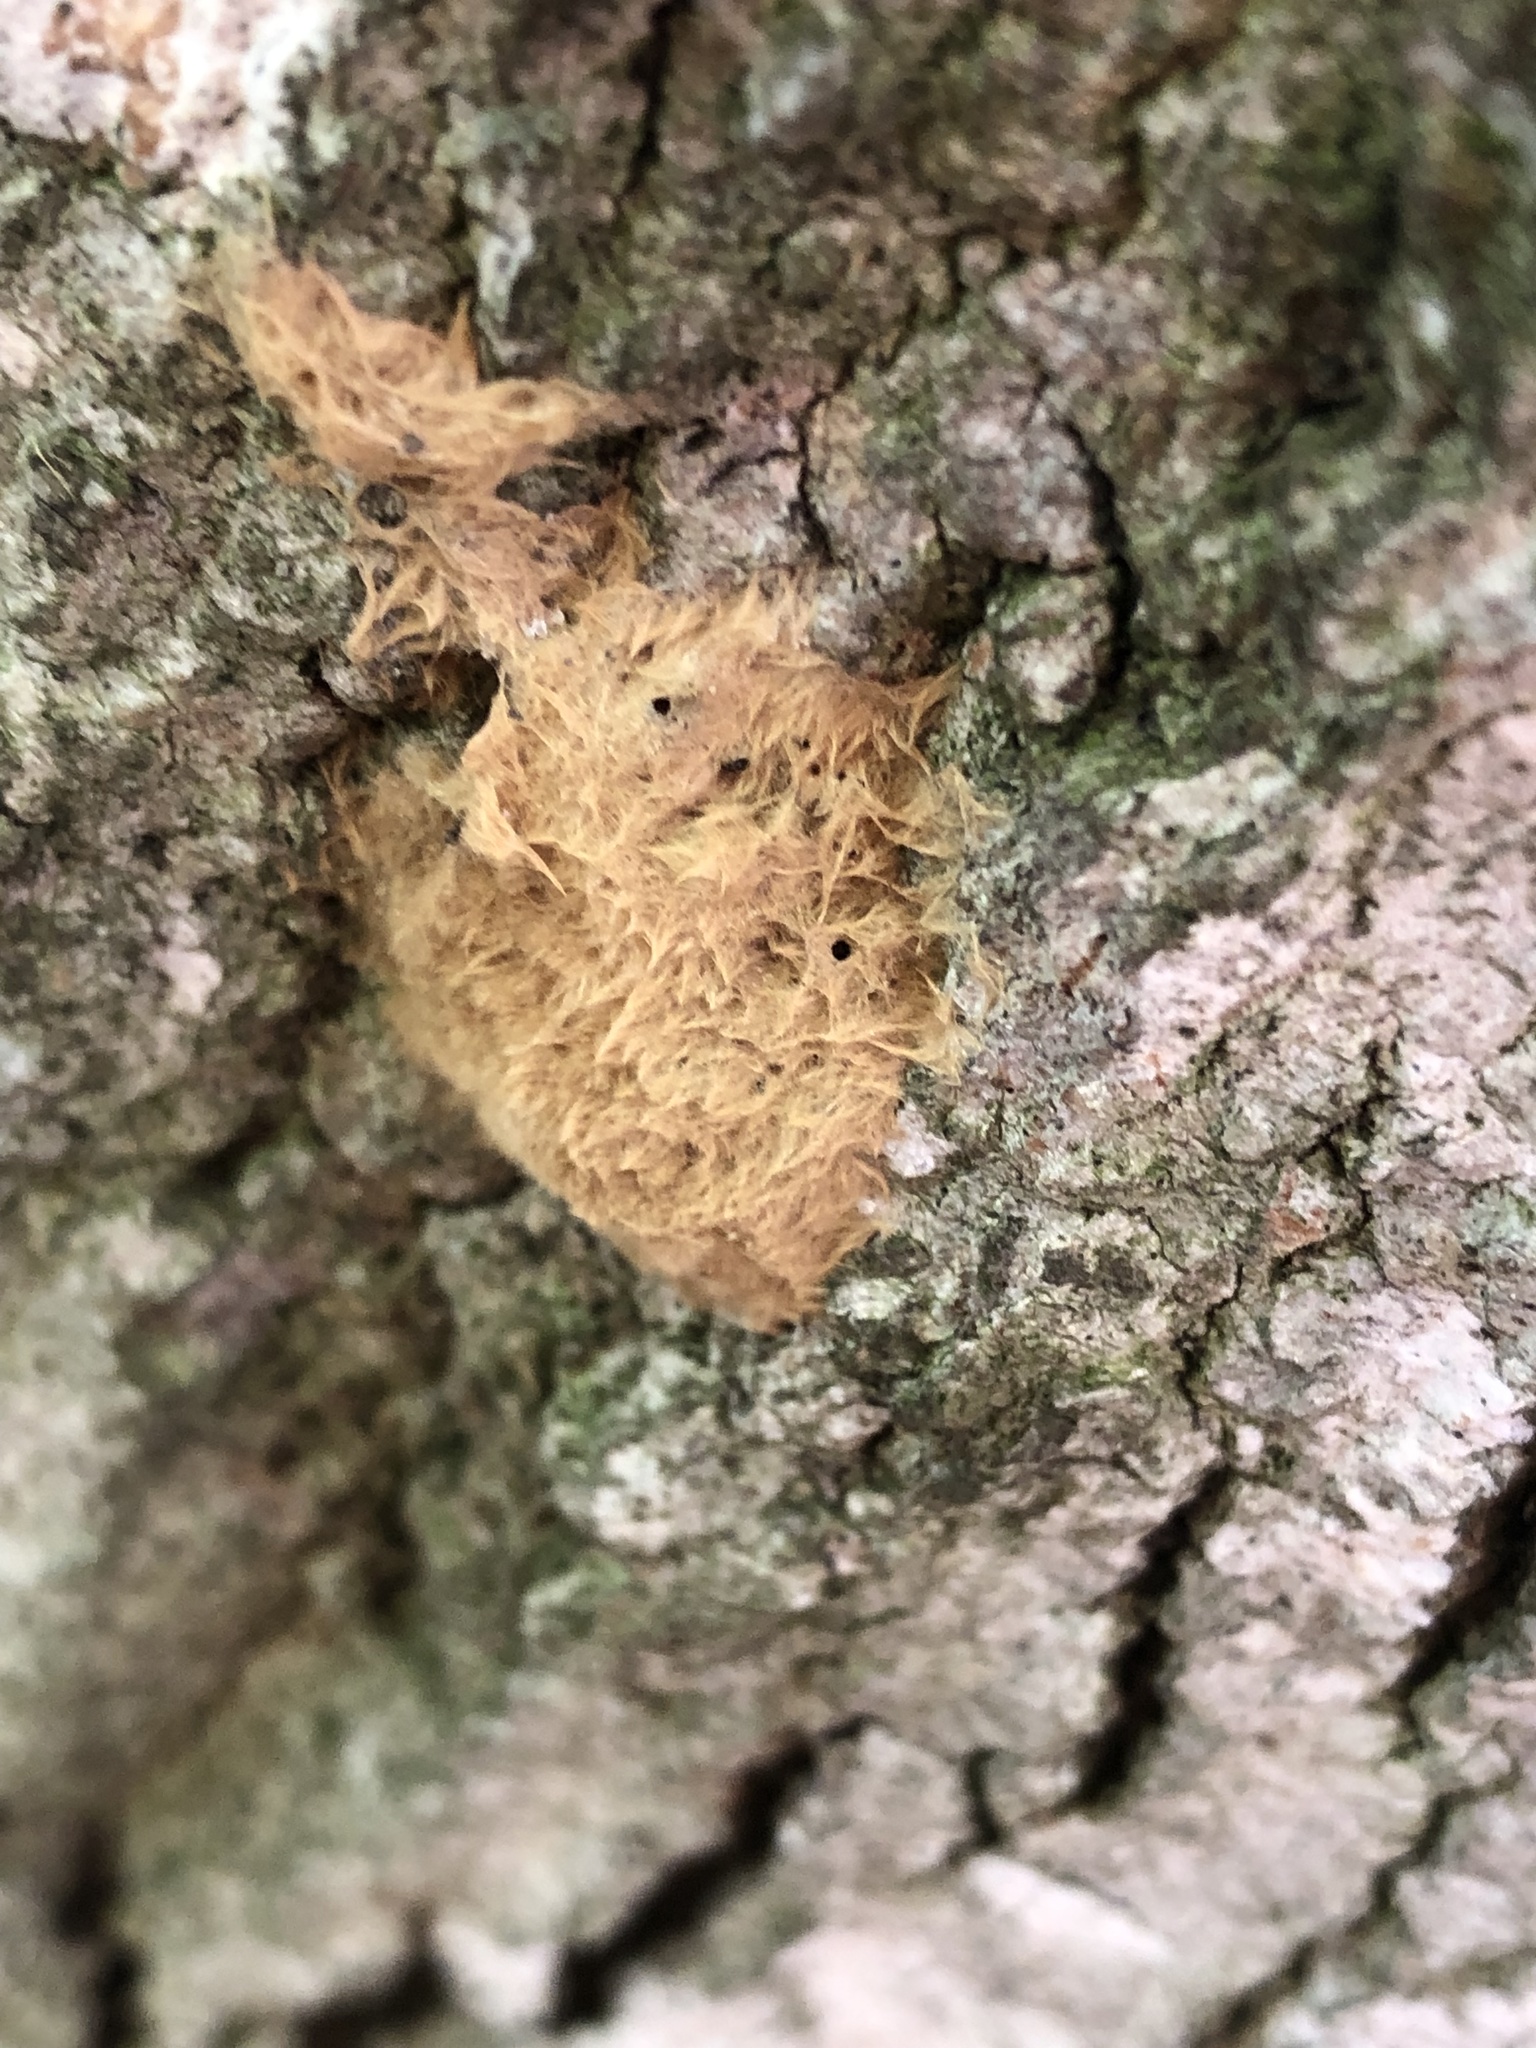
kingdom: Animalia
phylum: Arthropoda
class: Insecta
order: Lepidoptera
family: Erebidae
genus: Lymantria
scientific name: Lymantria dispar
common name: Gypsy moth
